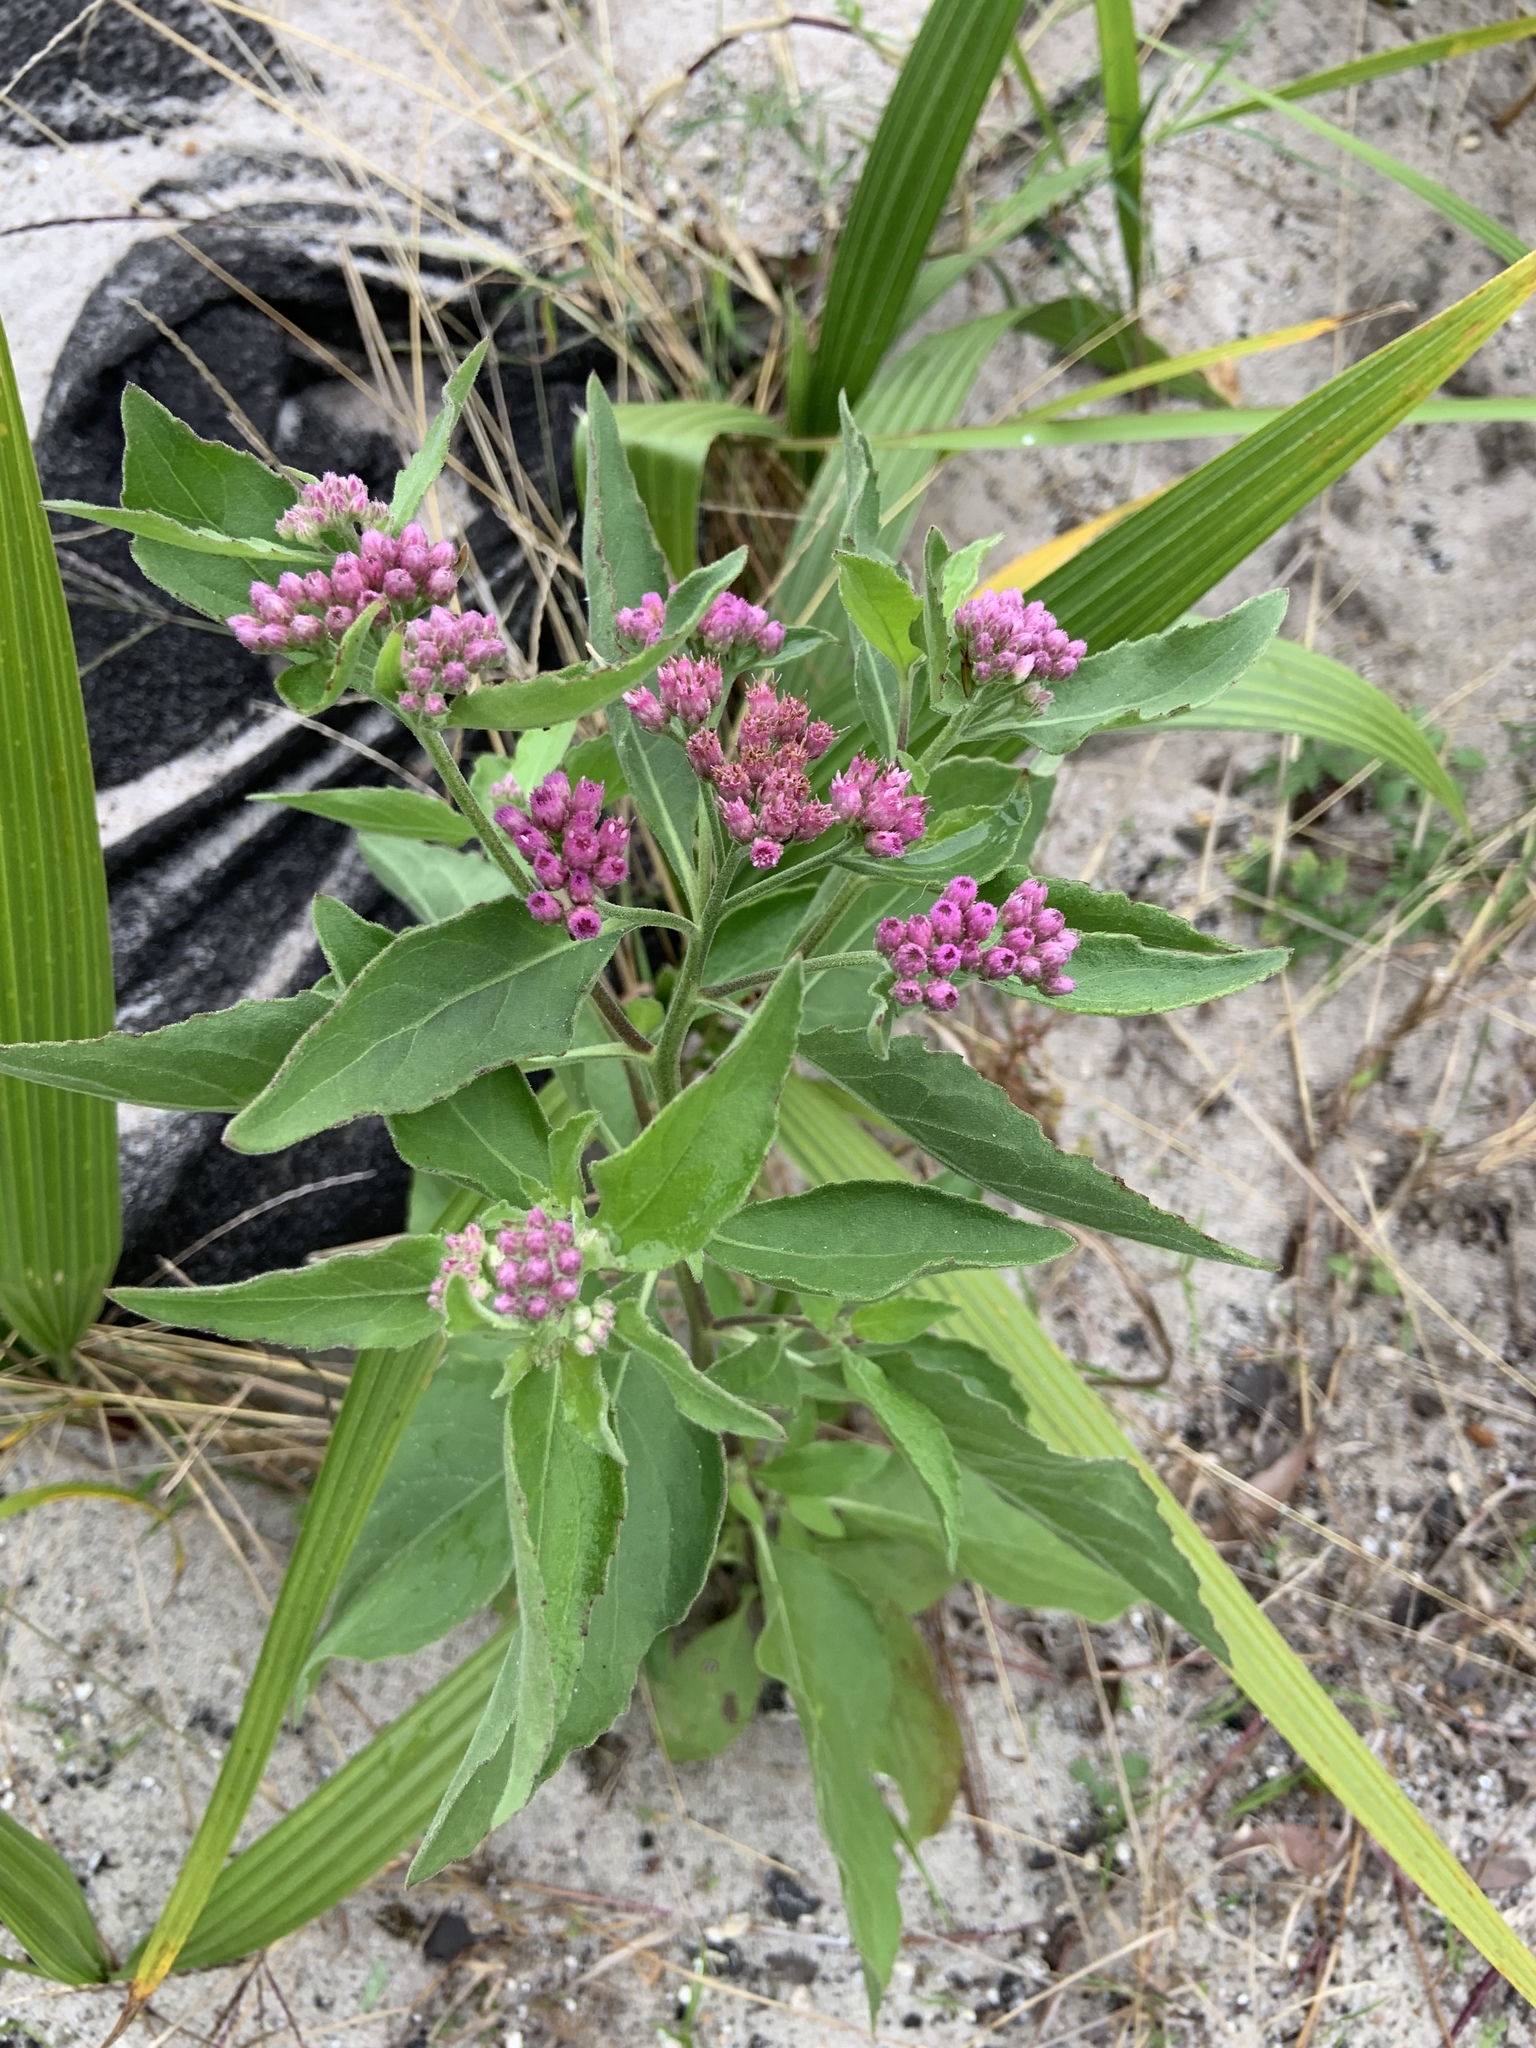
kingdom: Plantae
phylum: Tracheophyta
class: Magnoliopsida
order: Asterales
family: Asteraceae
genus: Pluchea
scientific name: Pluchea odorata
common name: Saltmarsh fleabane
